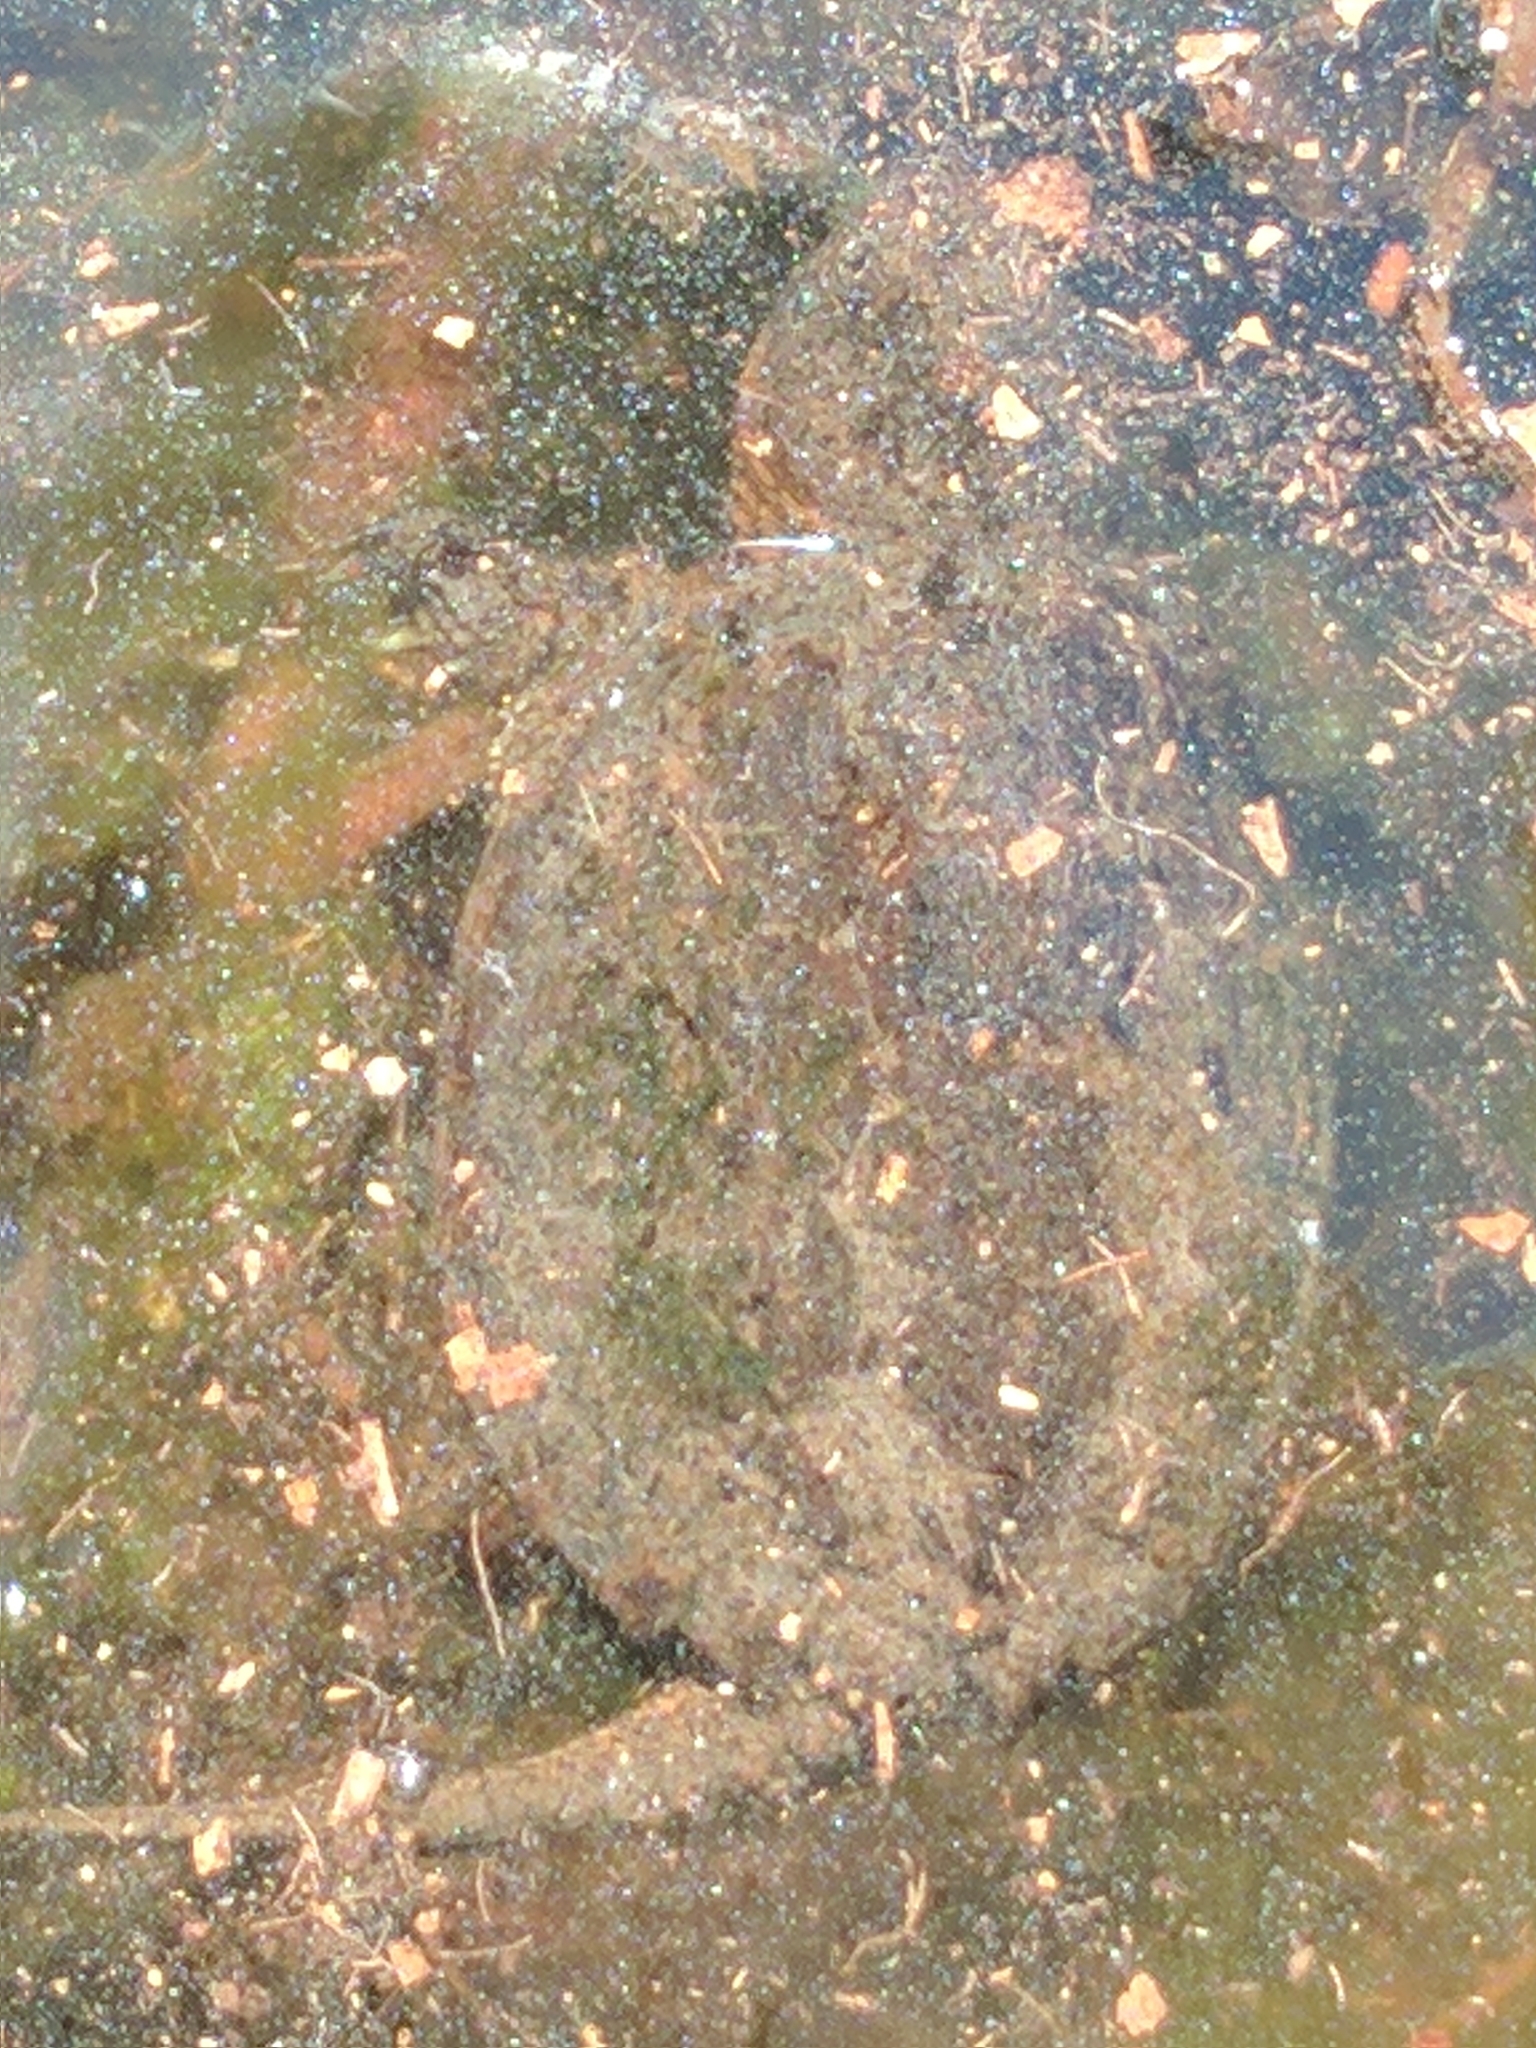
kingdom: Animalia
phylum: Chordata
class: Testudines
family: Chelydridae
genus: Chelydra
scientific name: Chelydra serpentina
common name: Common snapping turtle
